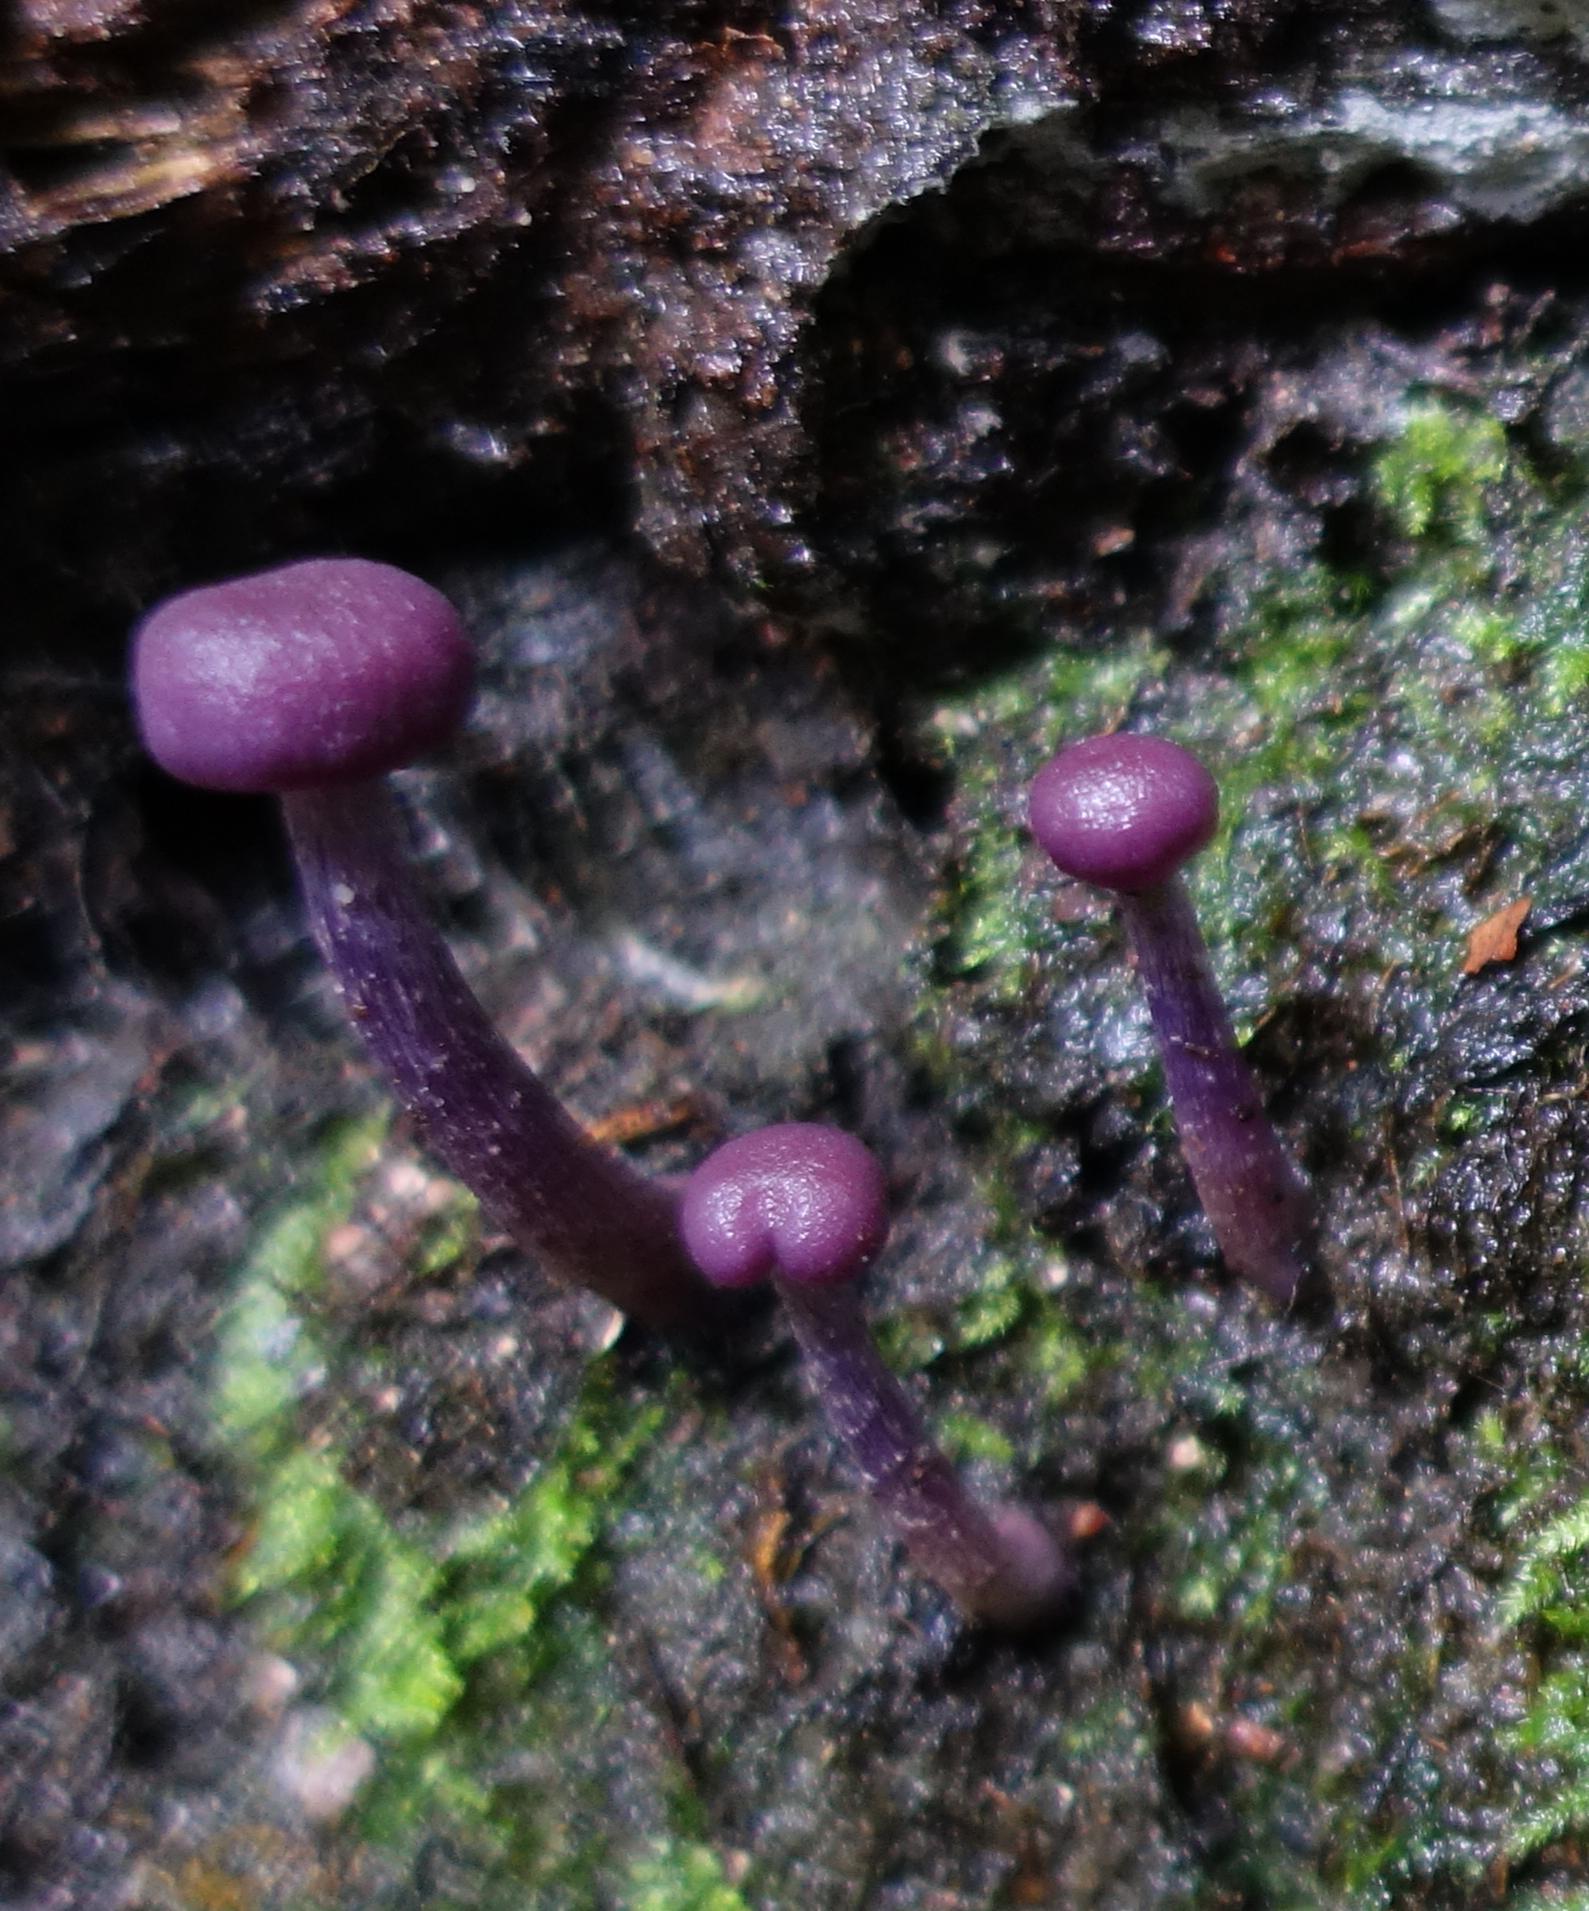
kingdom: Fungi
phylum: Basidiomycota
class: Agaricomycetes
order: Agaricales
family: Hydnangiaceae
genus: Laccaria
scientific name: Laccaria amethystina
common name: Amethyst deceiver
